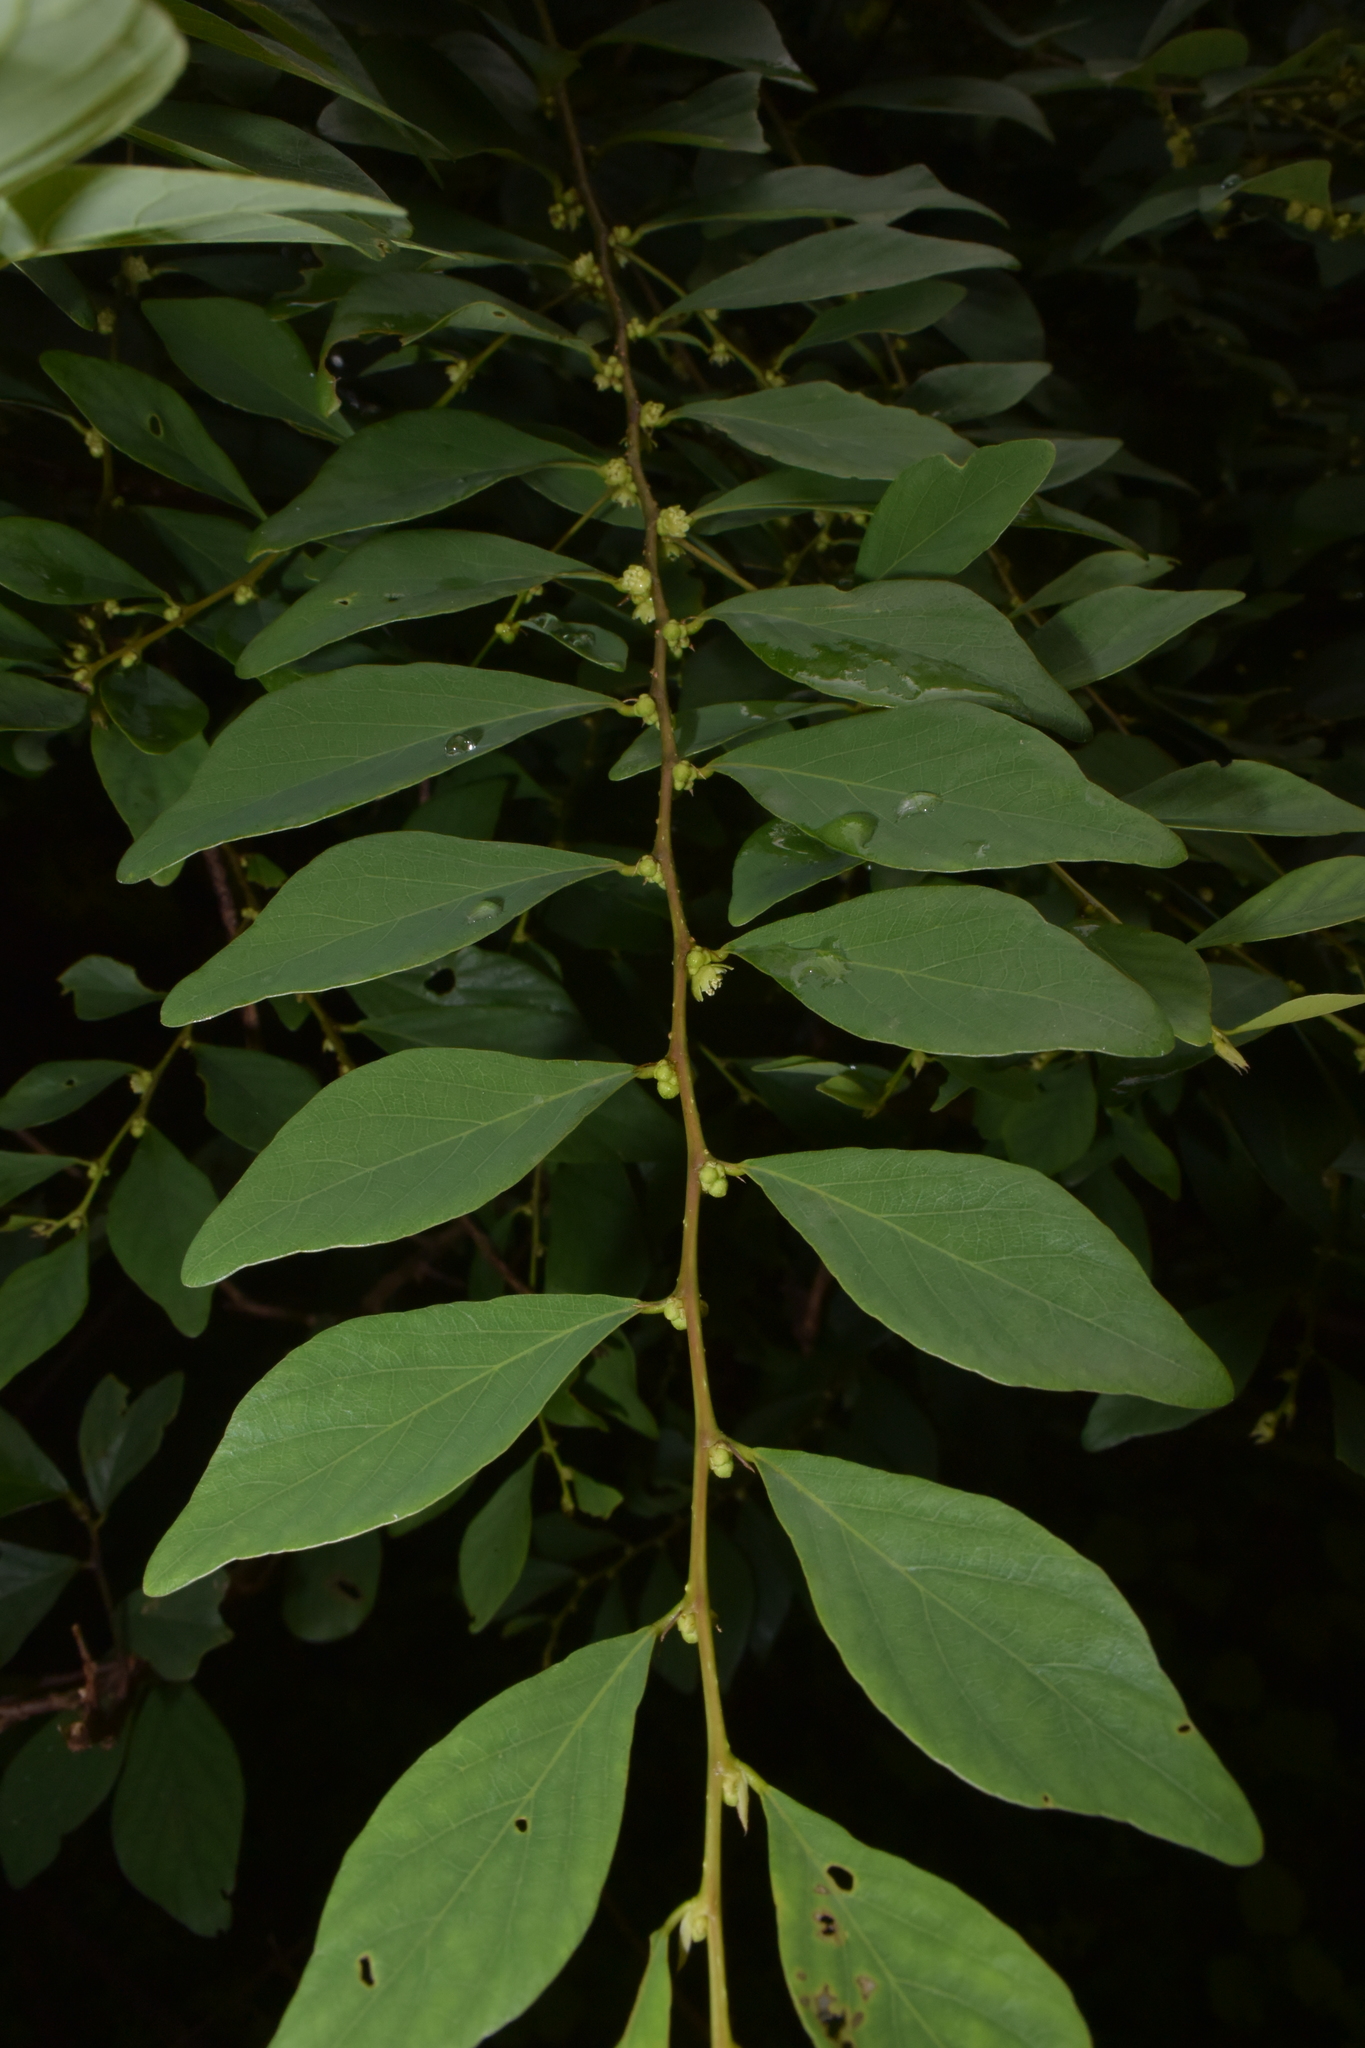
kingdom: Plantae
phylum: Tracheophyta
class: Magnoliopsida
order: Malpighiales
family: Phyllanthaceae
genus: Bridelia
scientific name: Bridelia montana
